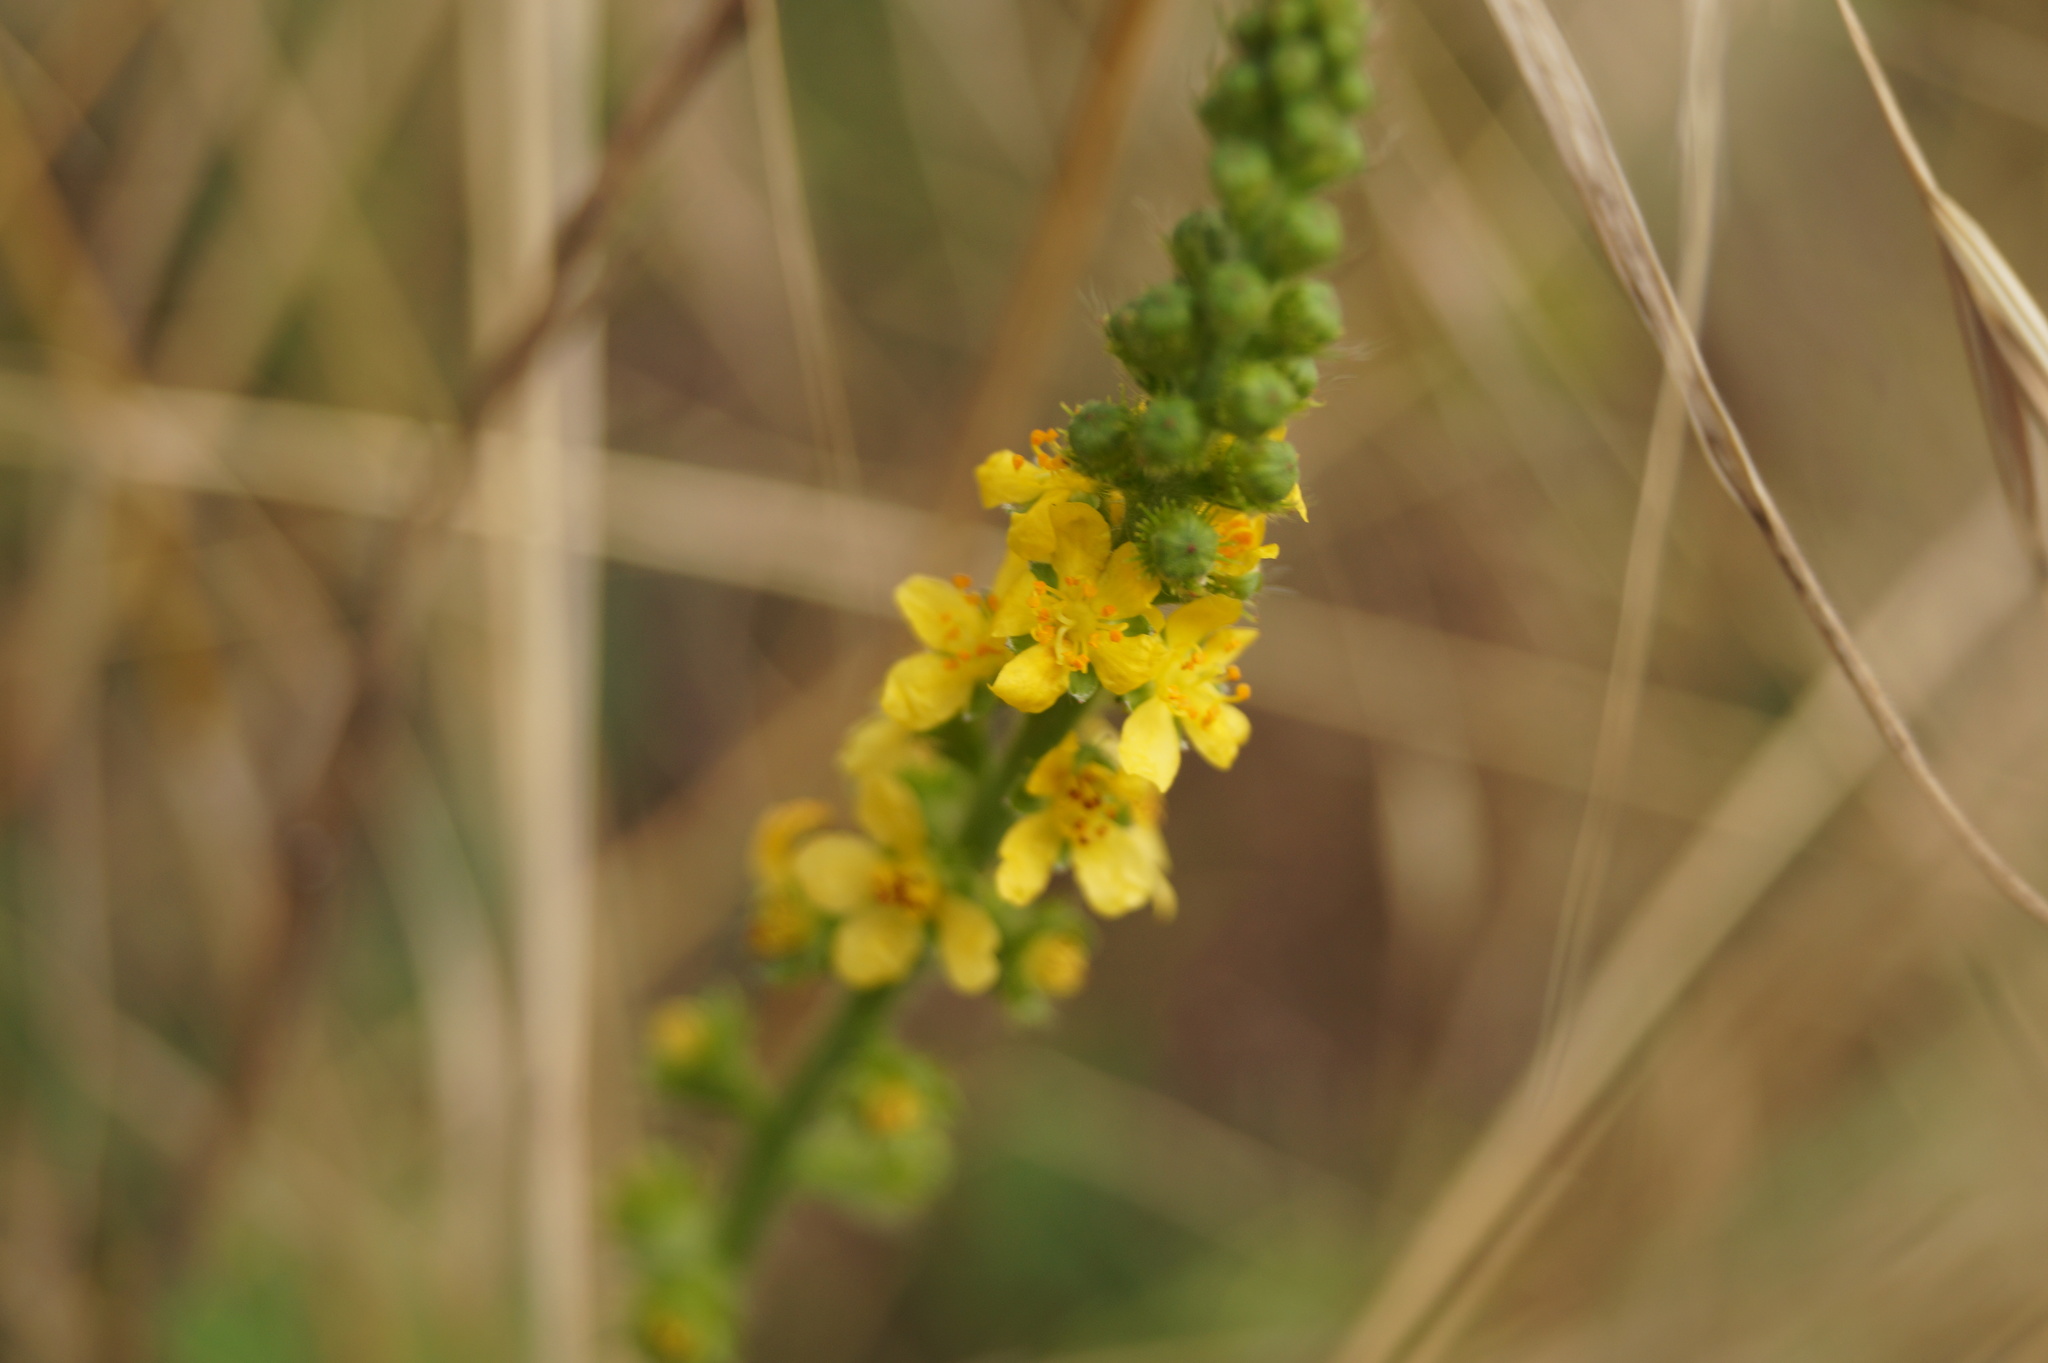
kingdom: Plantae
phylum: Tracheophyta
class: Magnoliopsida
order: Rosales
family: Rosaceae
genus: Agrimonia
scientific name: Agrimonia eupatoria
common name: Agrimony
